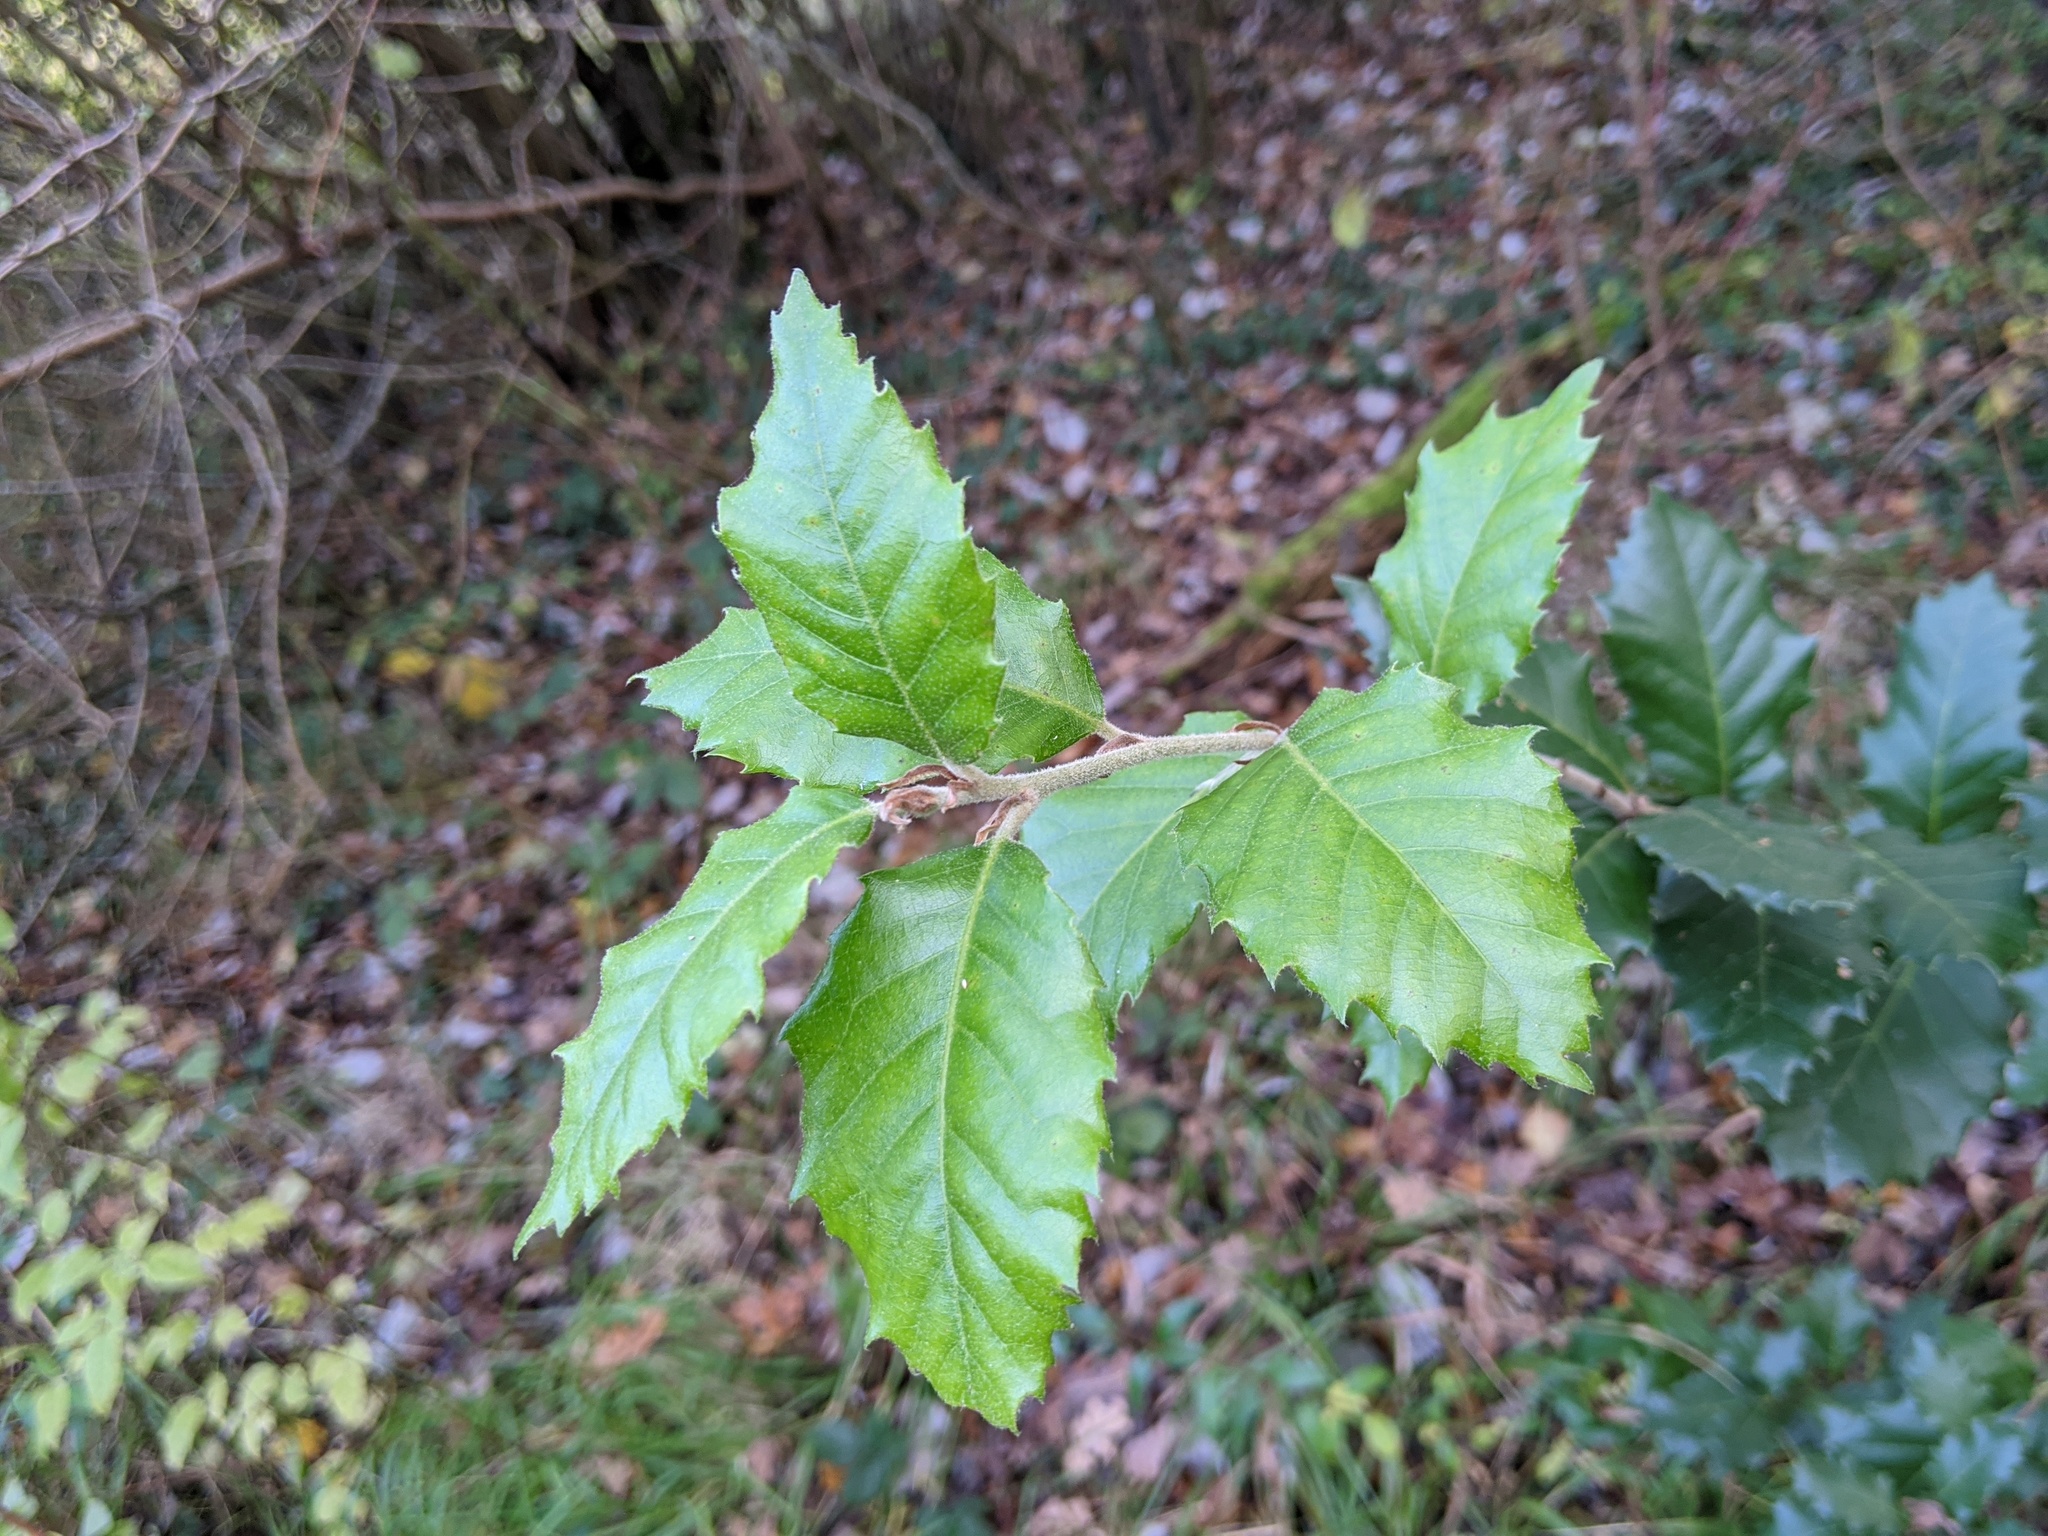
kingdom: Plantae
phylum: Tracheophyta
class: Magnoliopsida
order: Fagales
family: Fagaceae
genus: Quercus
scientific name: Quercus ilex
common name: Evergreen oak
